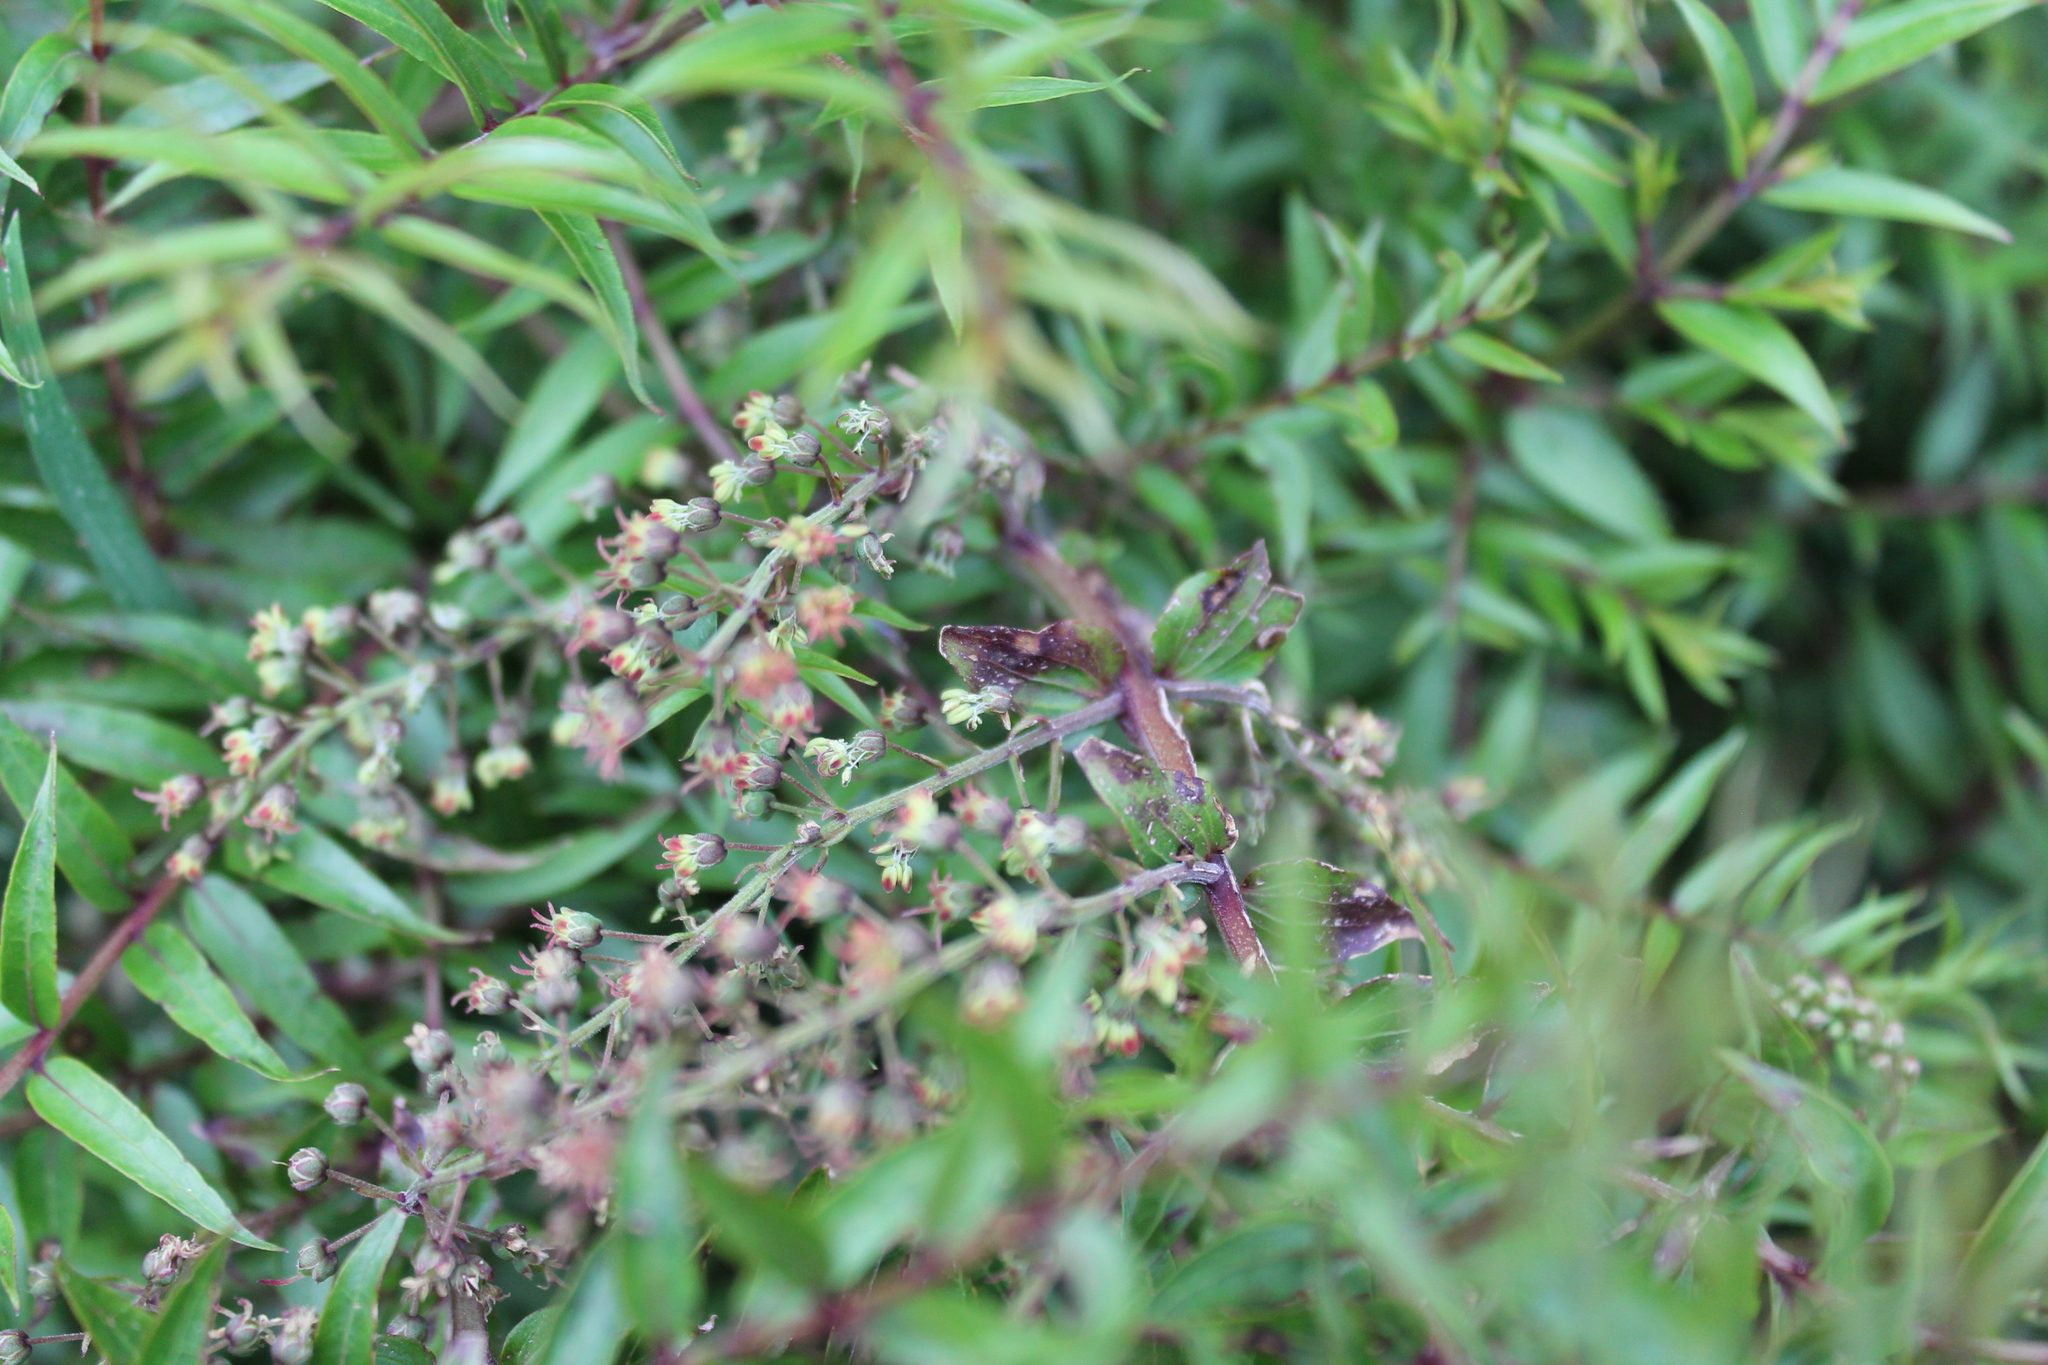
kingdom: Plantae
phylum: Tracheophyta
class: Magnoliopsida
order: Cucurbitales
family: Coriariaceae
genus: Coriaria
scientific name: Coriaria plumosa
